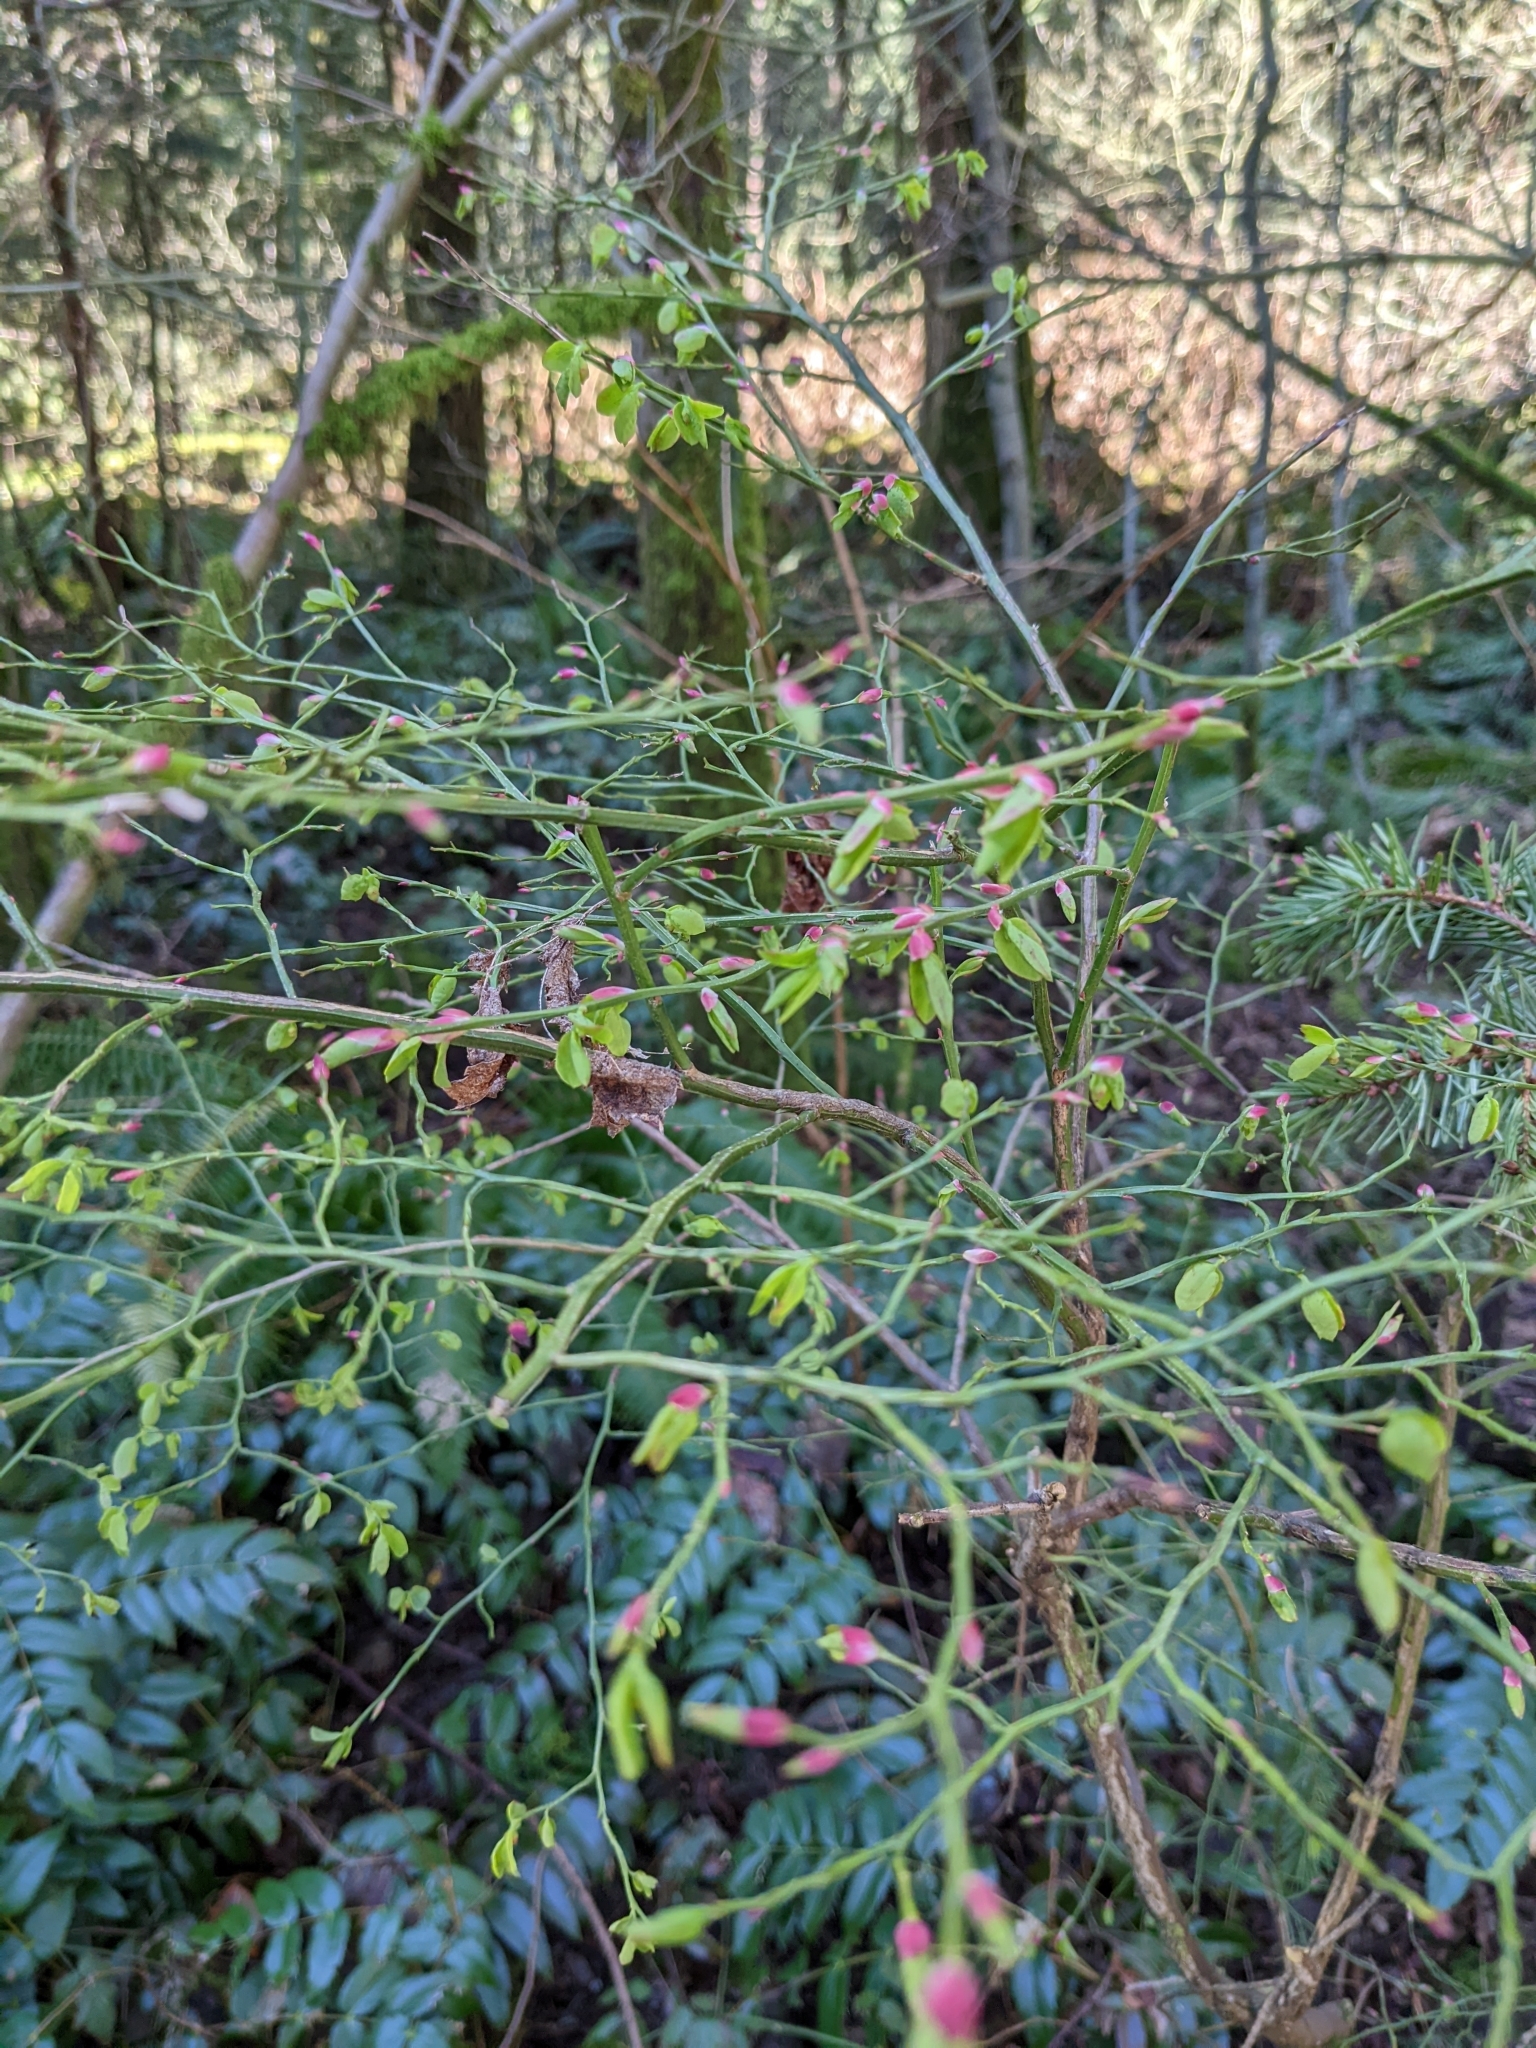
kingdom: Plantae
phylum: Tracheophyta
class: Magnoliopsida
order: Ericales
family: Ericaceae
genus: Vaccinium
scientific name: Vaccinium parvifolium
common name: Red-huckleberry
